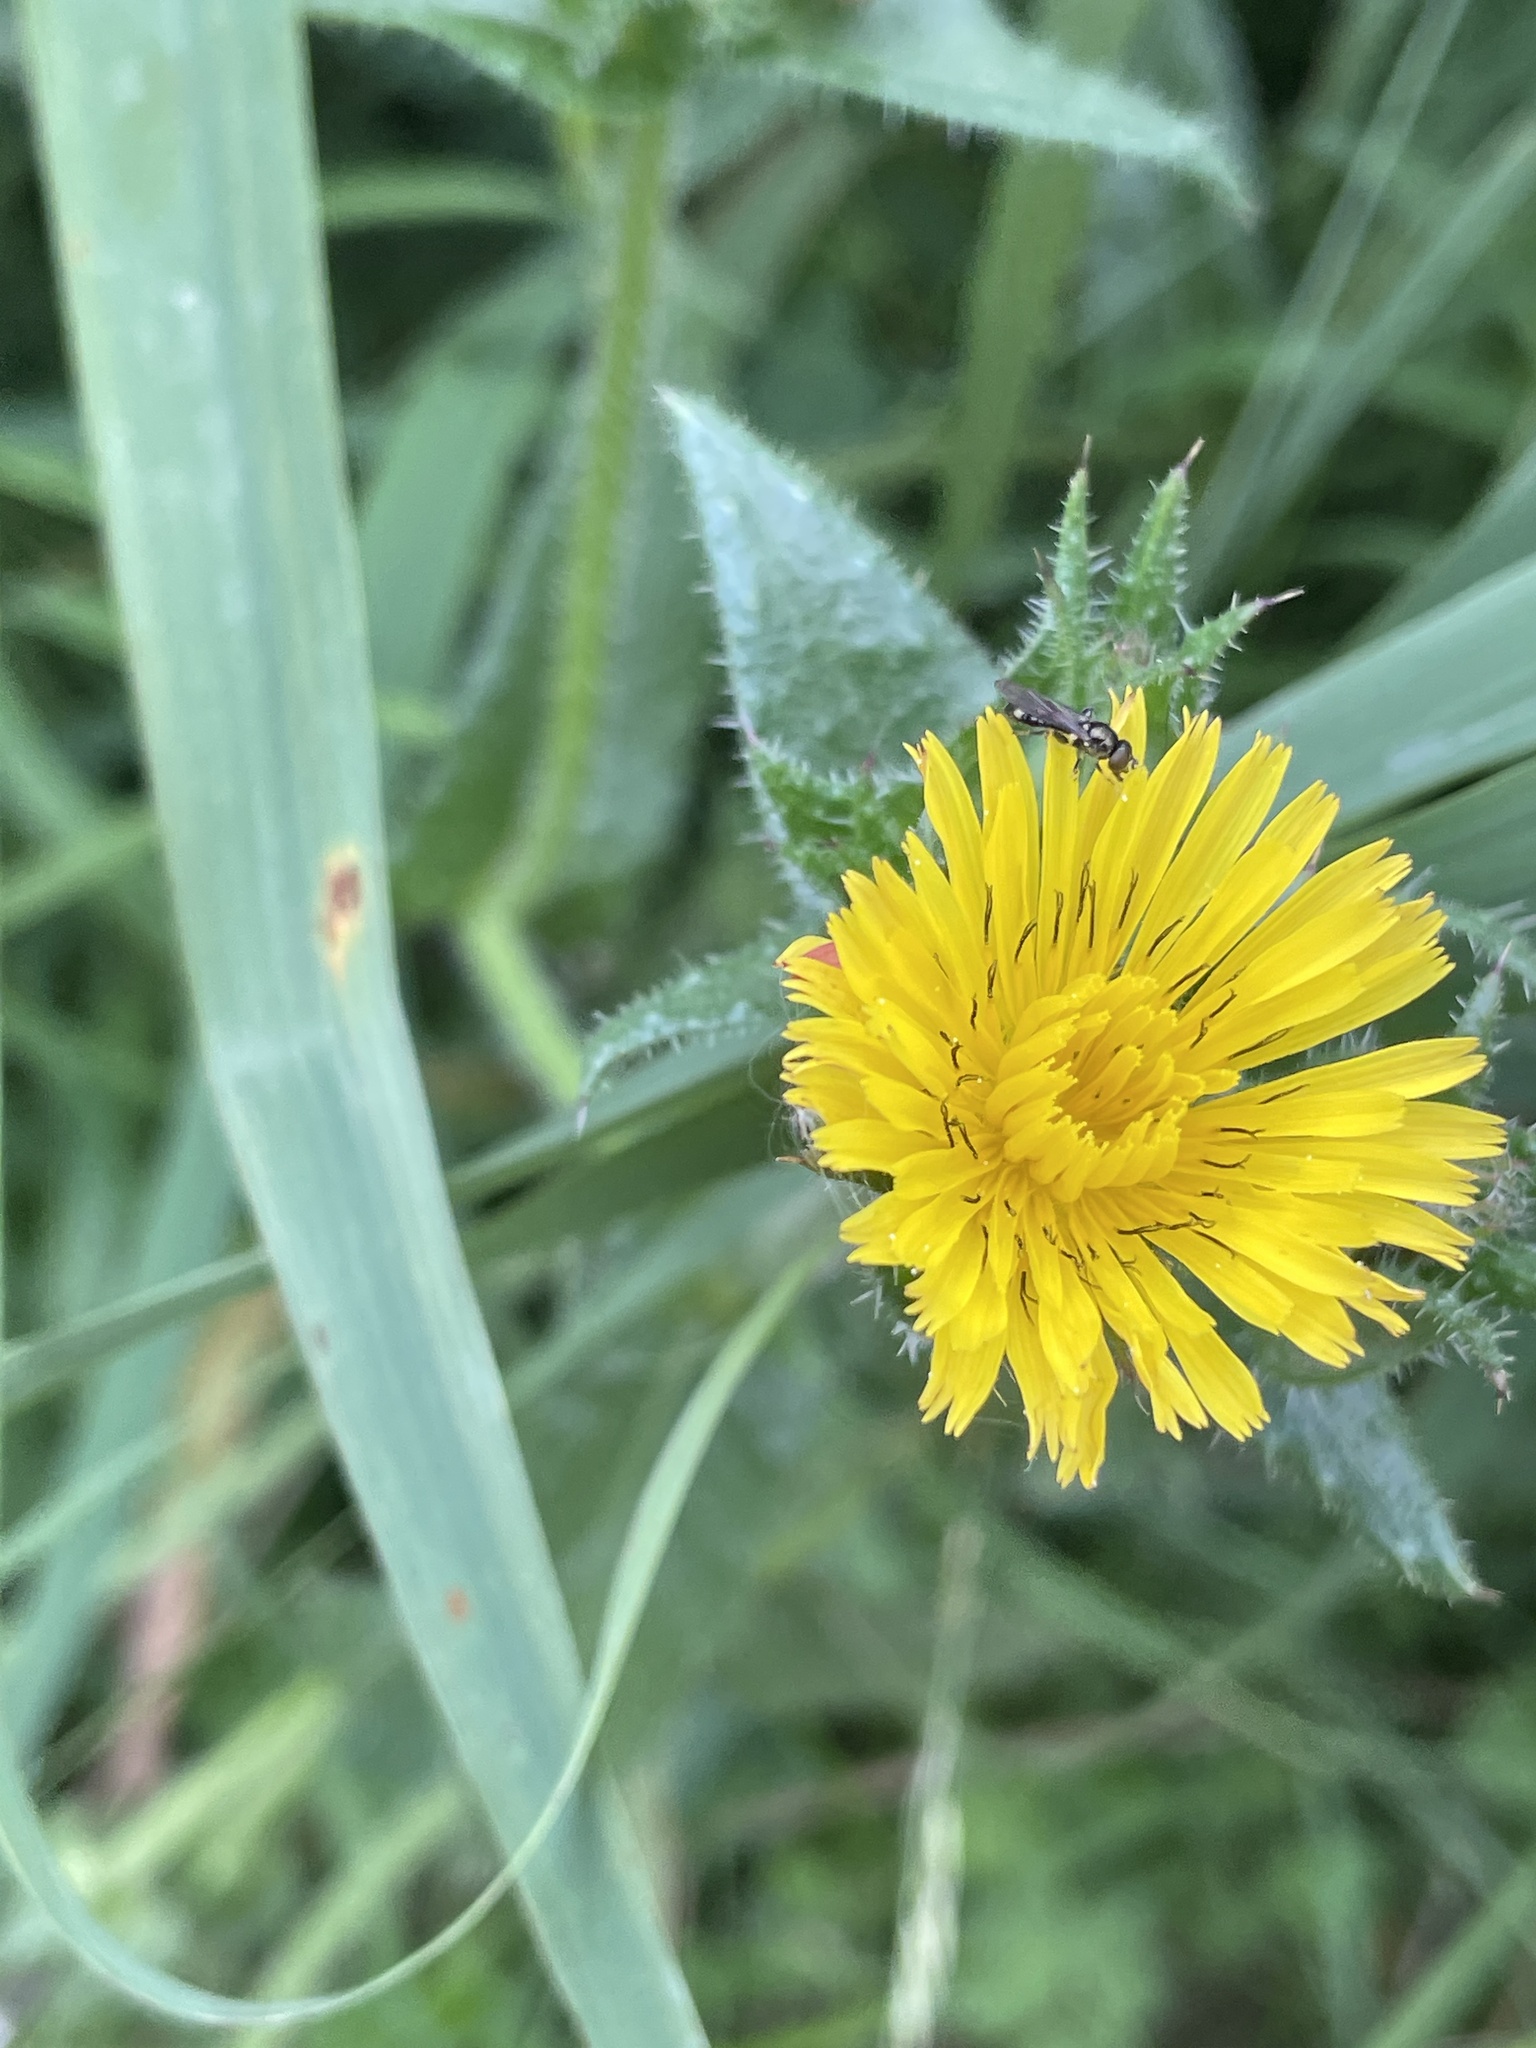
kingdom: Plantae
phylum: Tracheophyta
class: Magnoliopsida
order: Asterales
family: Asteraceae
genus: Helminthotheca
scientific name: Helminthotheca echioides
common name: Ox-tongue
